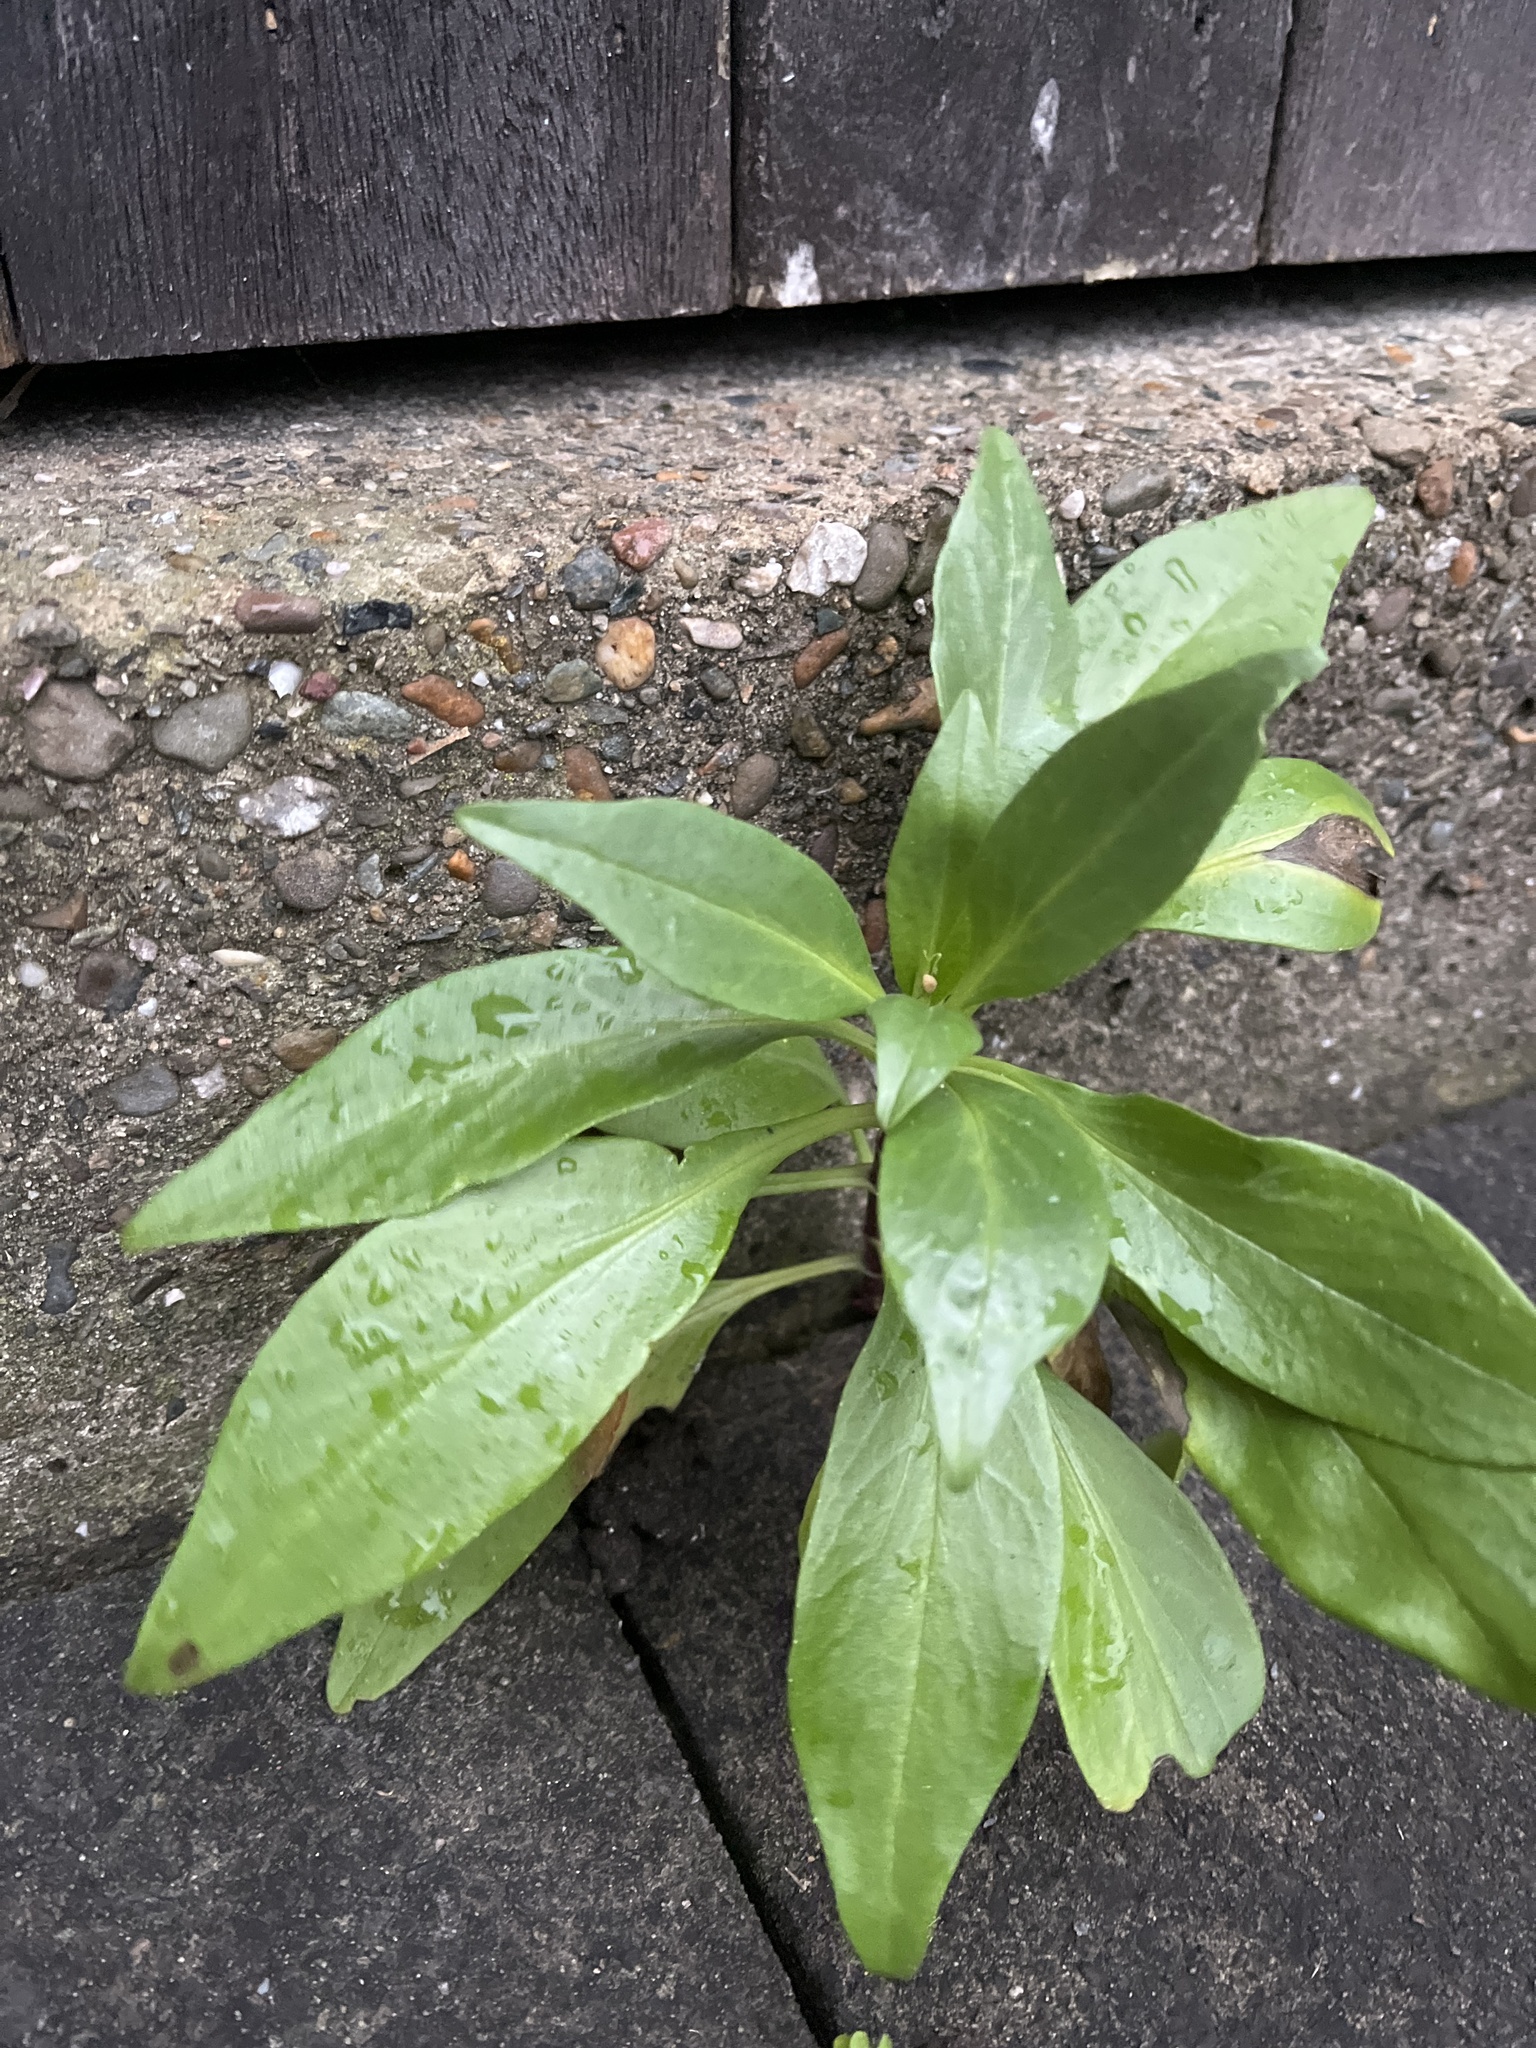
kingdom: Plantae
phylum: Tracheophyta
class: Magnoliopsida
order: Dipsacales
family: Caprifoliaceae
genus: Centranthus
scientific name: Centranthus ruber
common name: Red valerian
